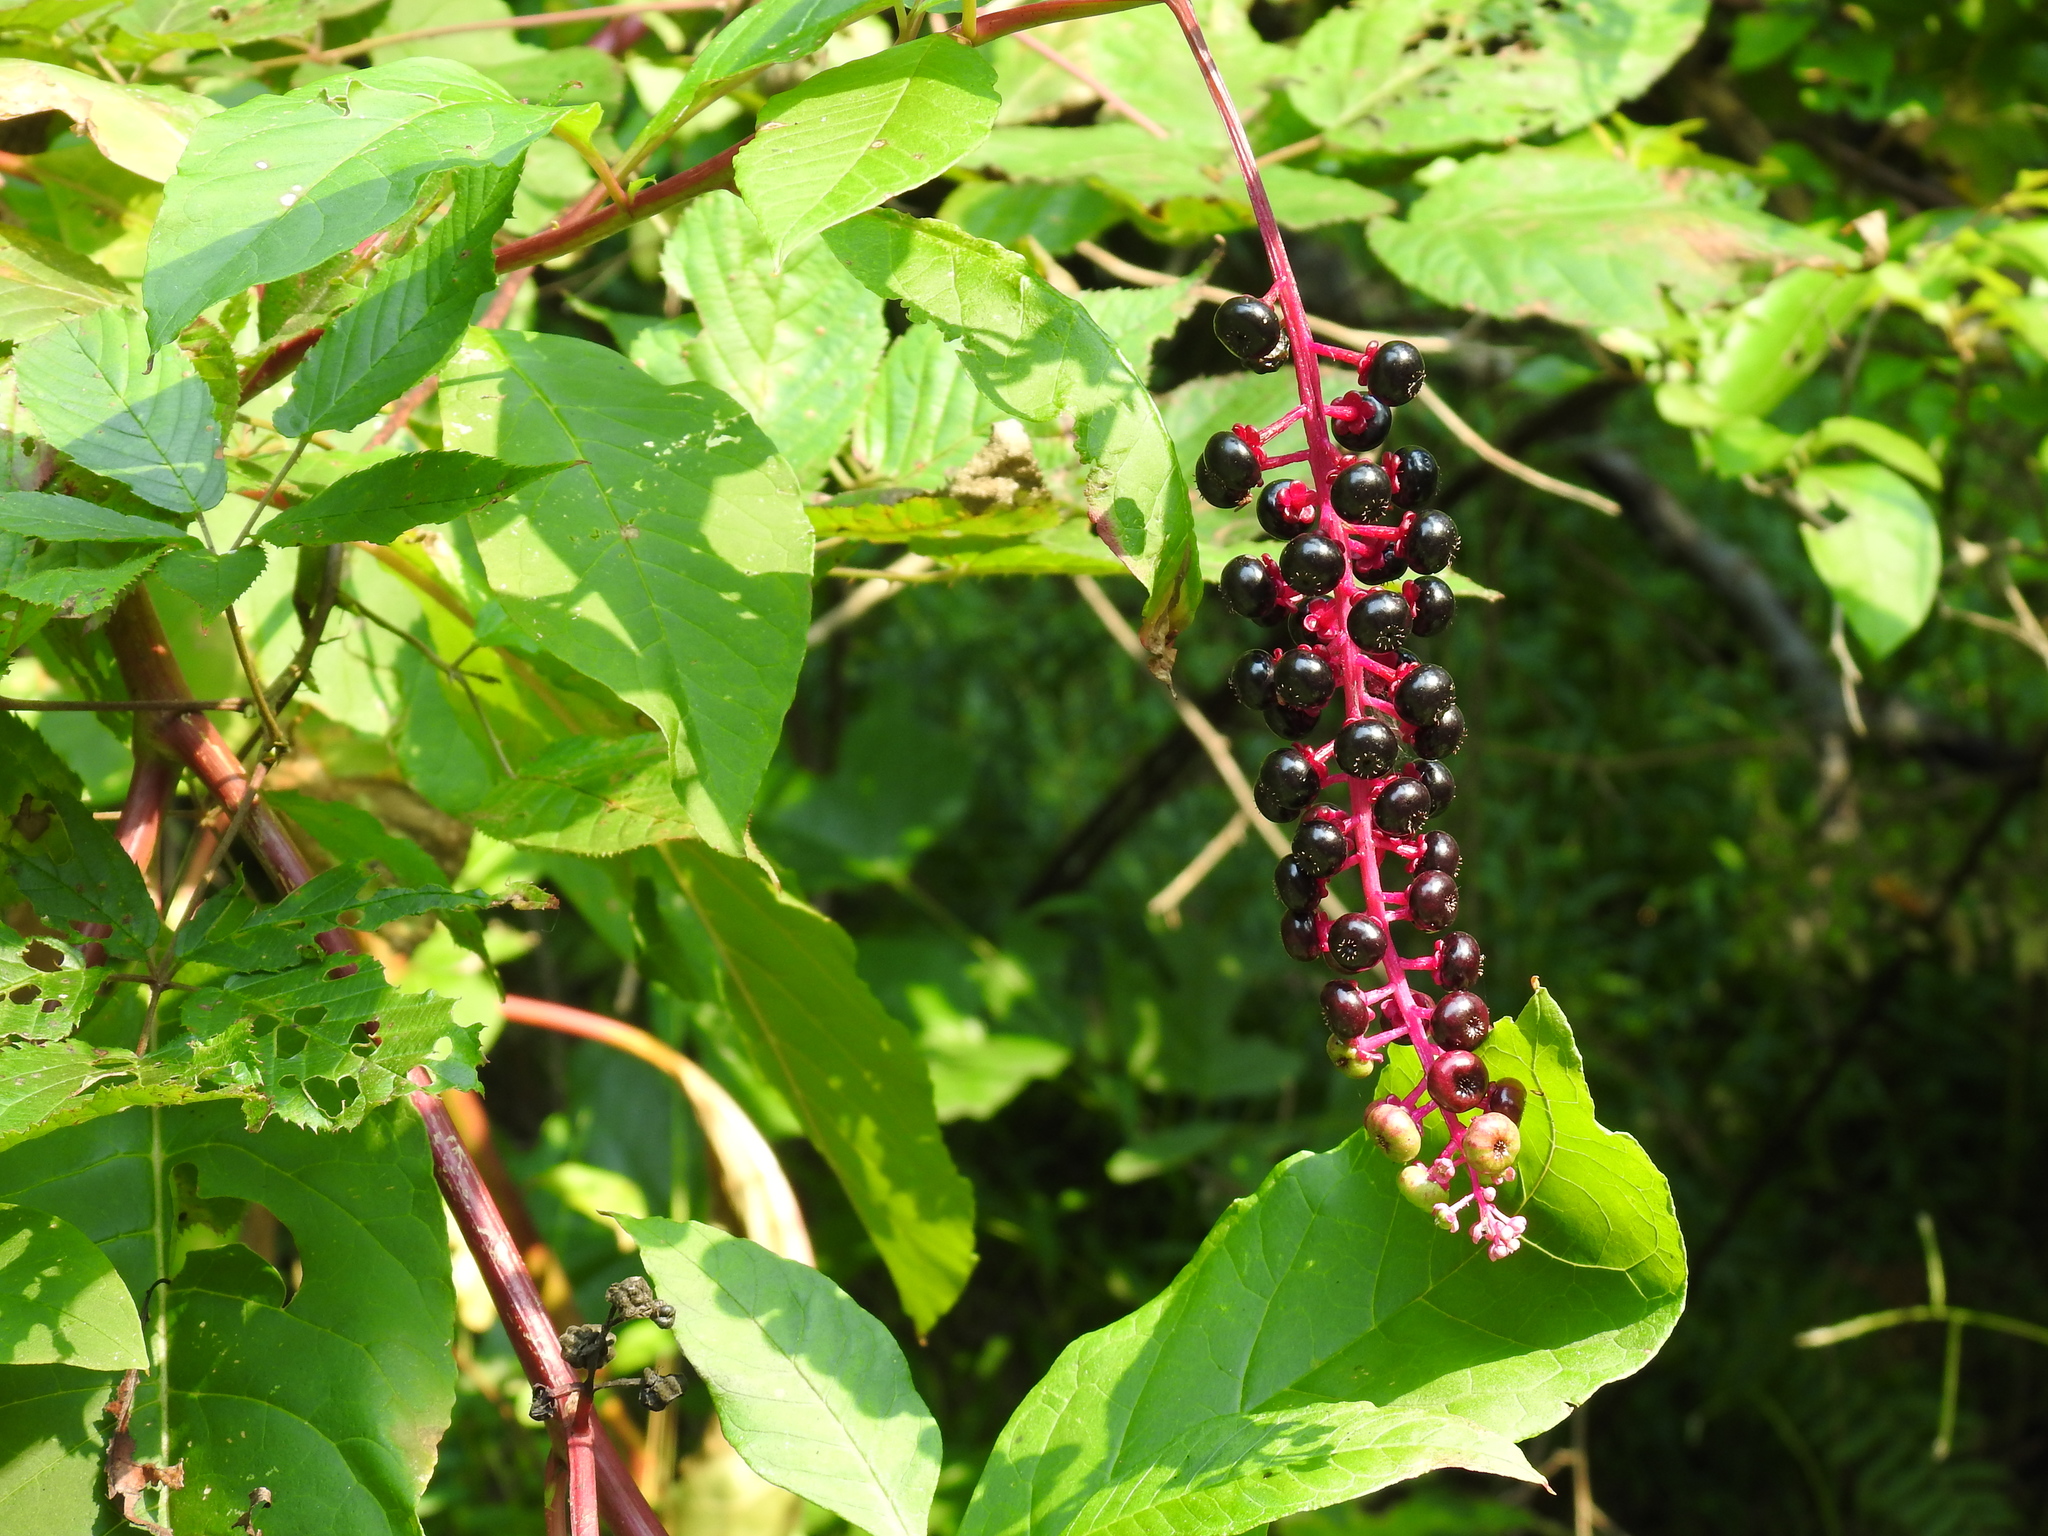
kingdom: Plantae
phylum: Tracheophyta
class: Magnoliopsida
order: Caryophyllales
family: Phytolaccaceae
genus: Phytolacca
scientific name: Phytolacca americana
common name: American pokeweed
